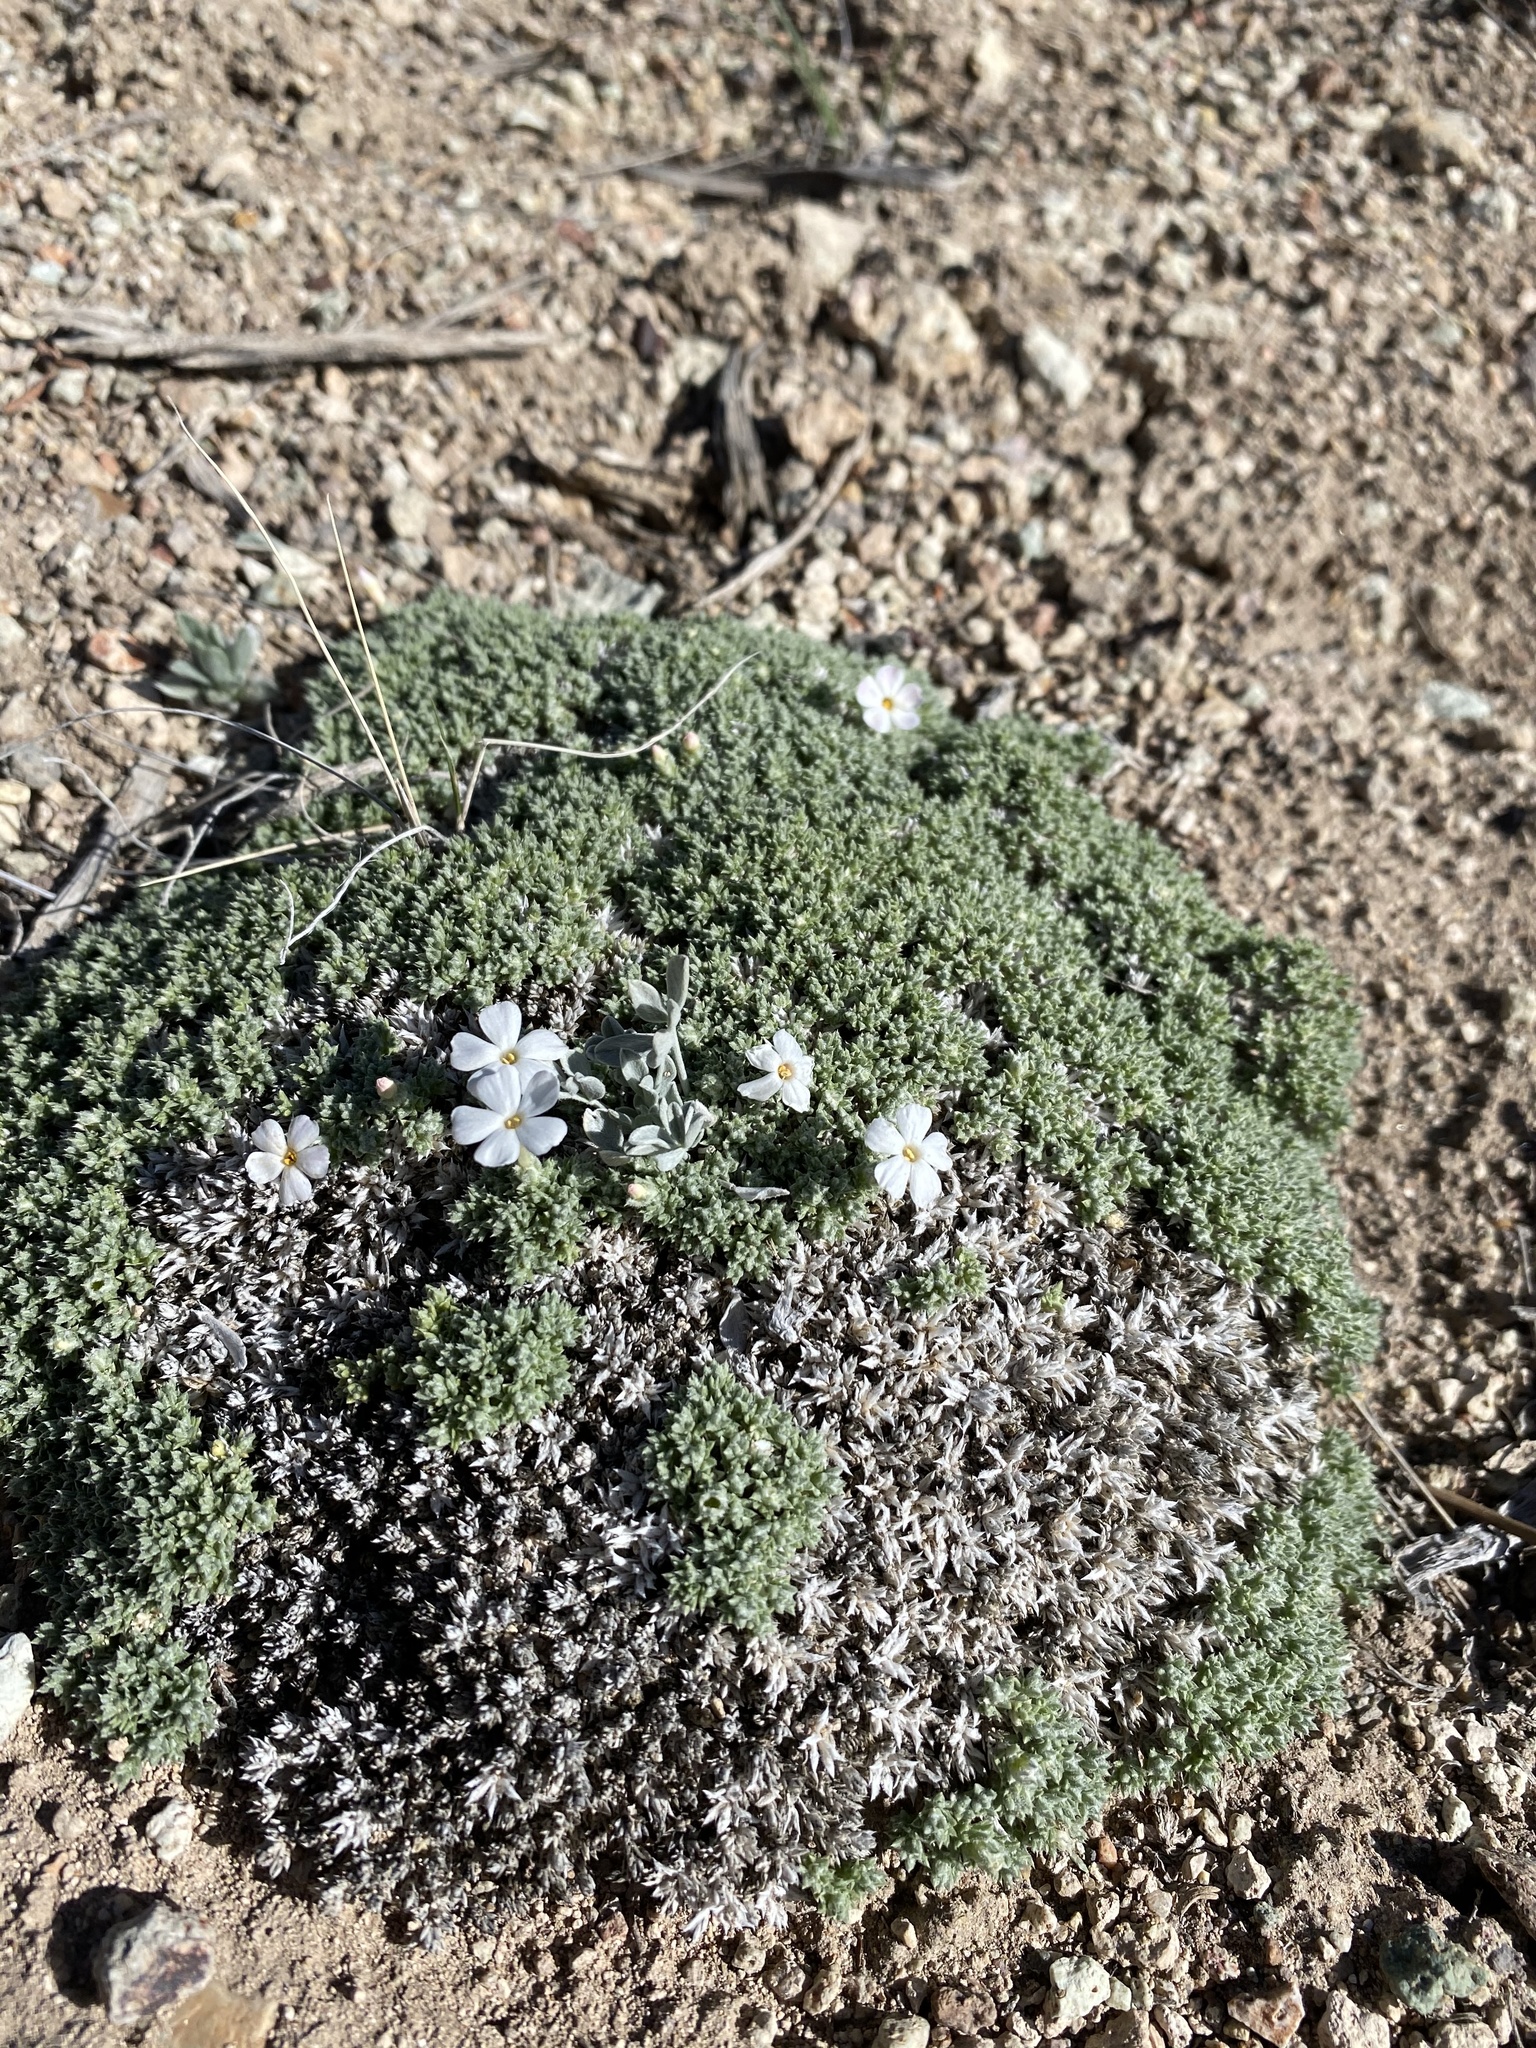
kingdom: Plantae
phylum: Tracheophyta
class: Magnoliopsida
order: Ericales
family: Polemoniaceae
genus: Phlox
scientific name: Phlox griseola
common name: Gray-leaf phlox
